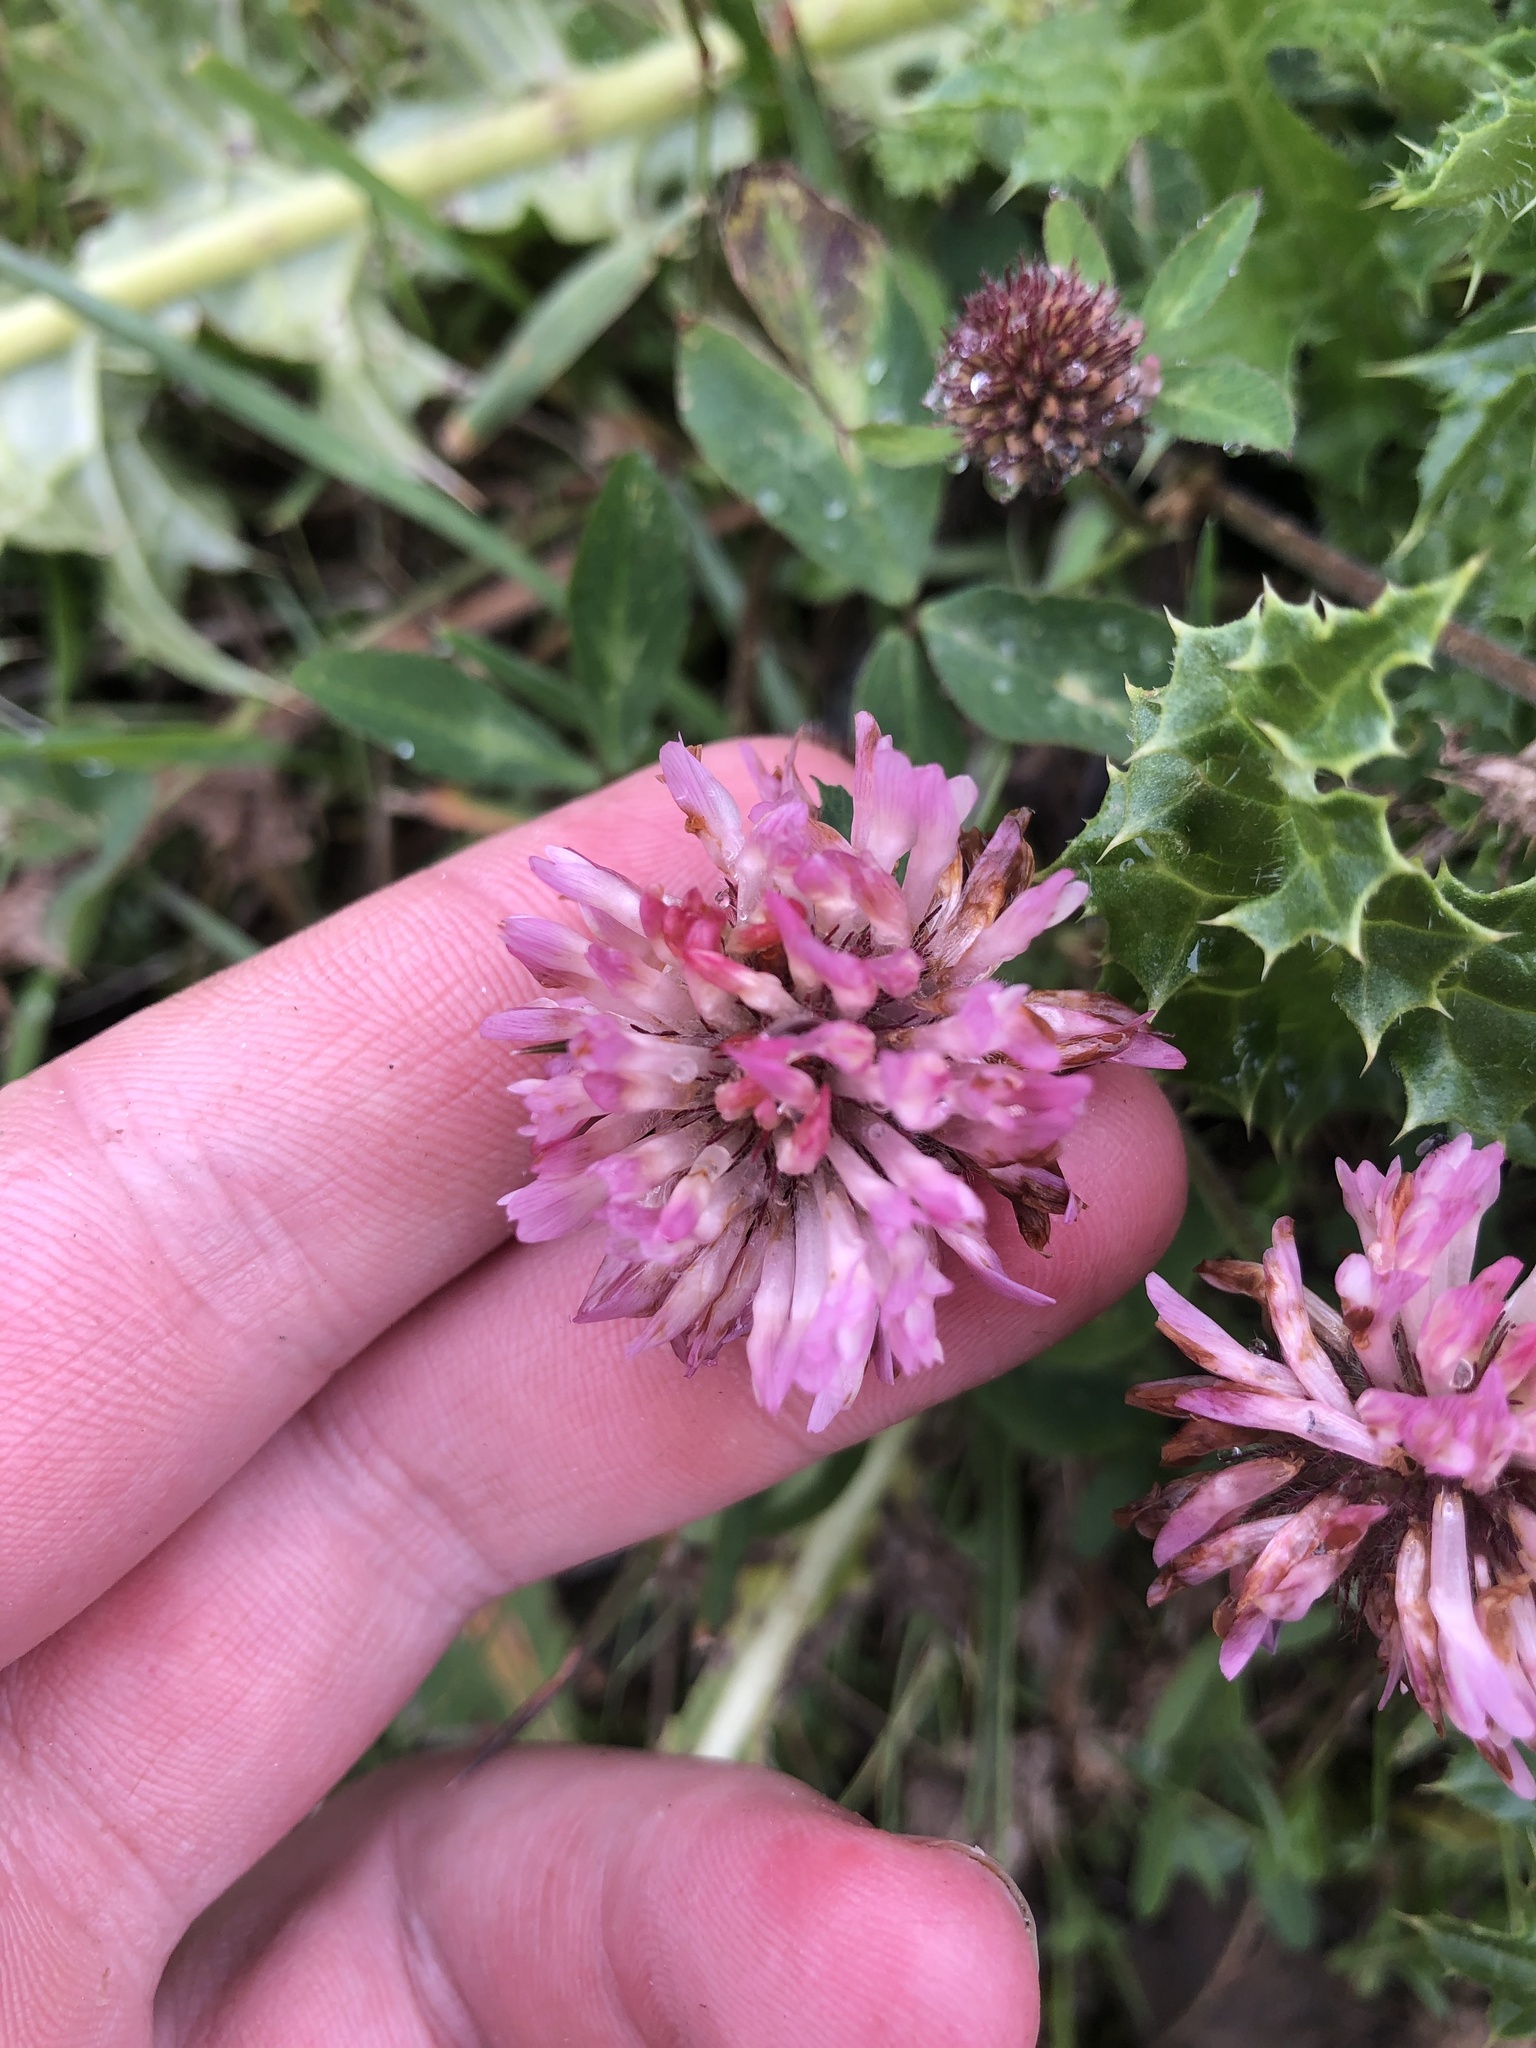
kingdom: Plantae
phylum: Tracheophyta
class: Magnoliopsida
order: Fabales
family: Fabaceae
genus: Trifolium
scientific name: Trifolium pratense
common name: Red clover
